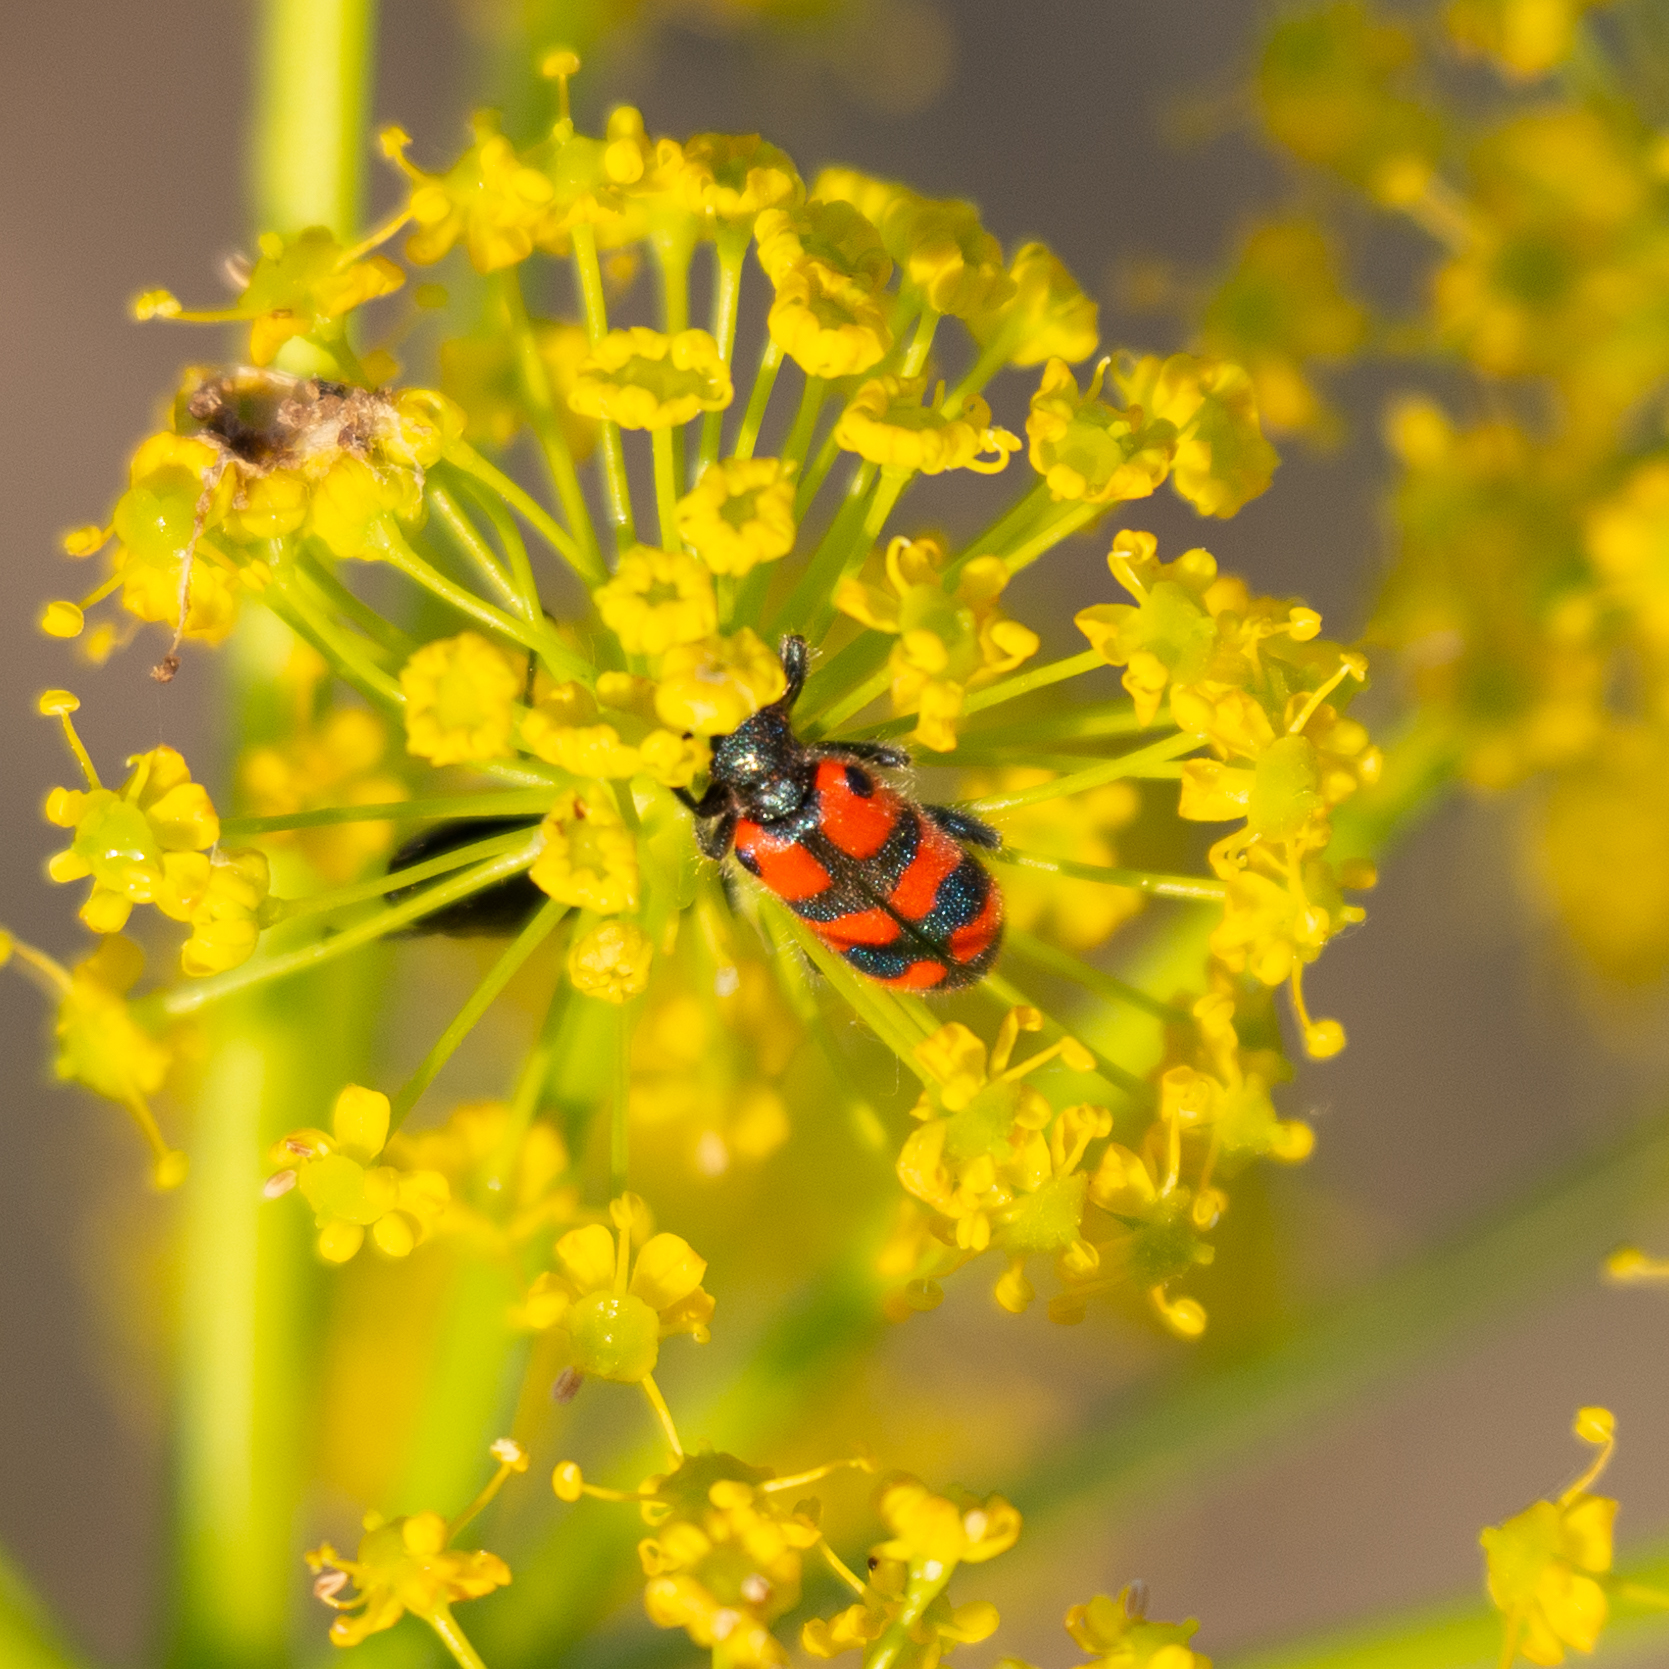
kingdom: Animalia
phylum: Arthropoda
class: Insecta
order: Coleoptera
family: Cleridae
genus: Trichodes
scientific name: Trichodes leucopsideus
